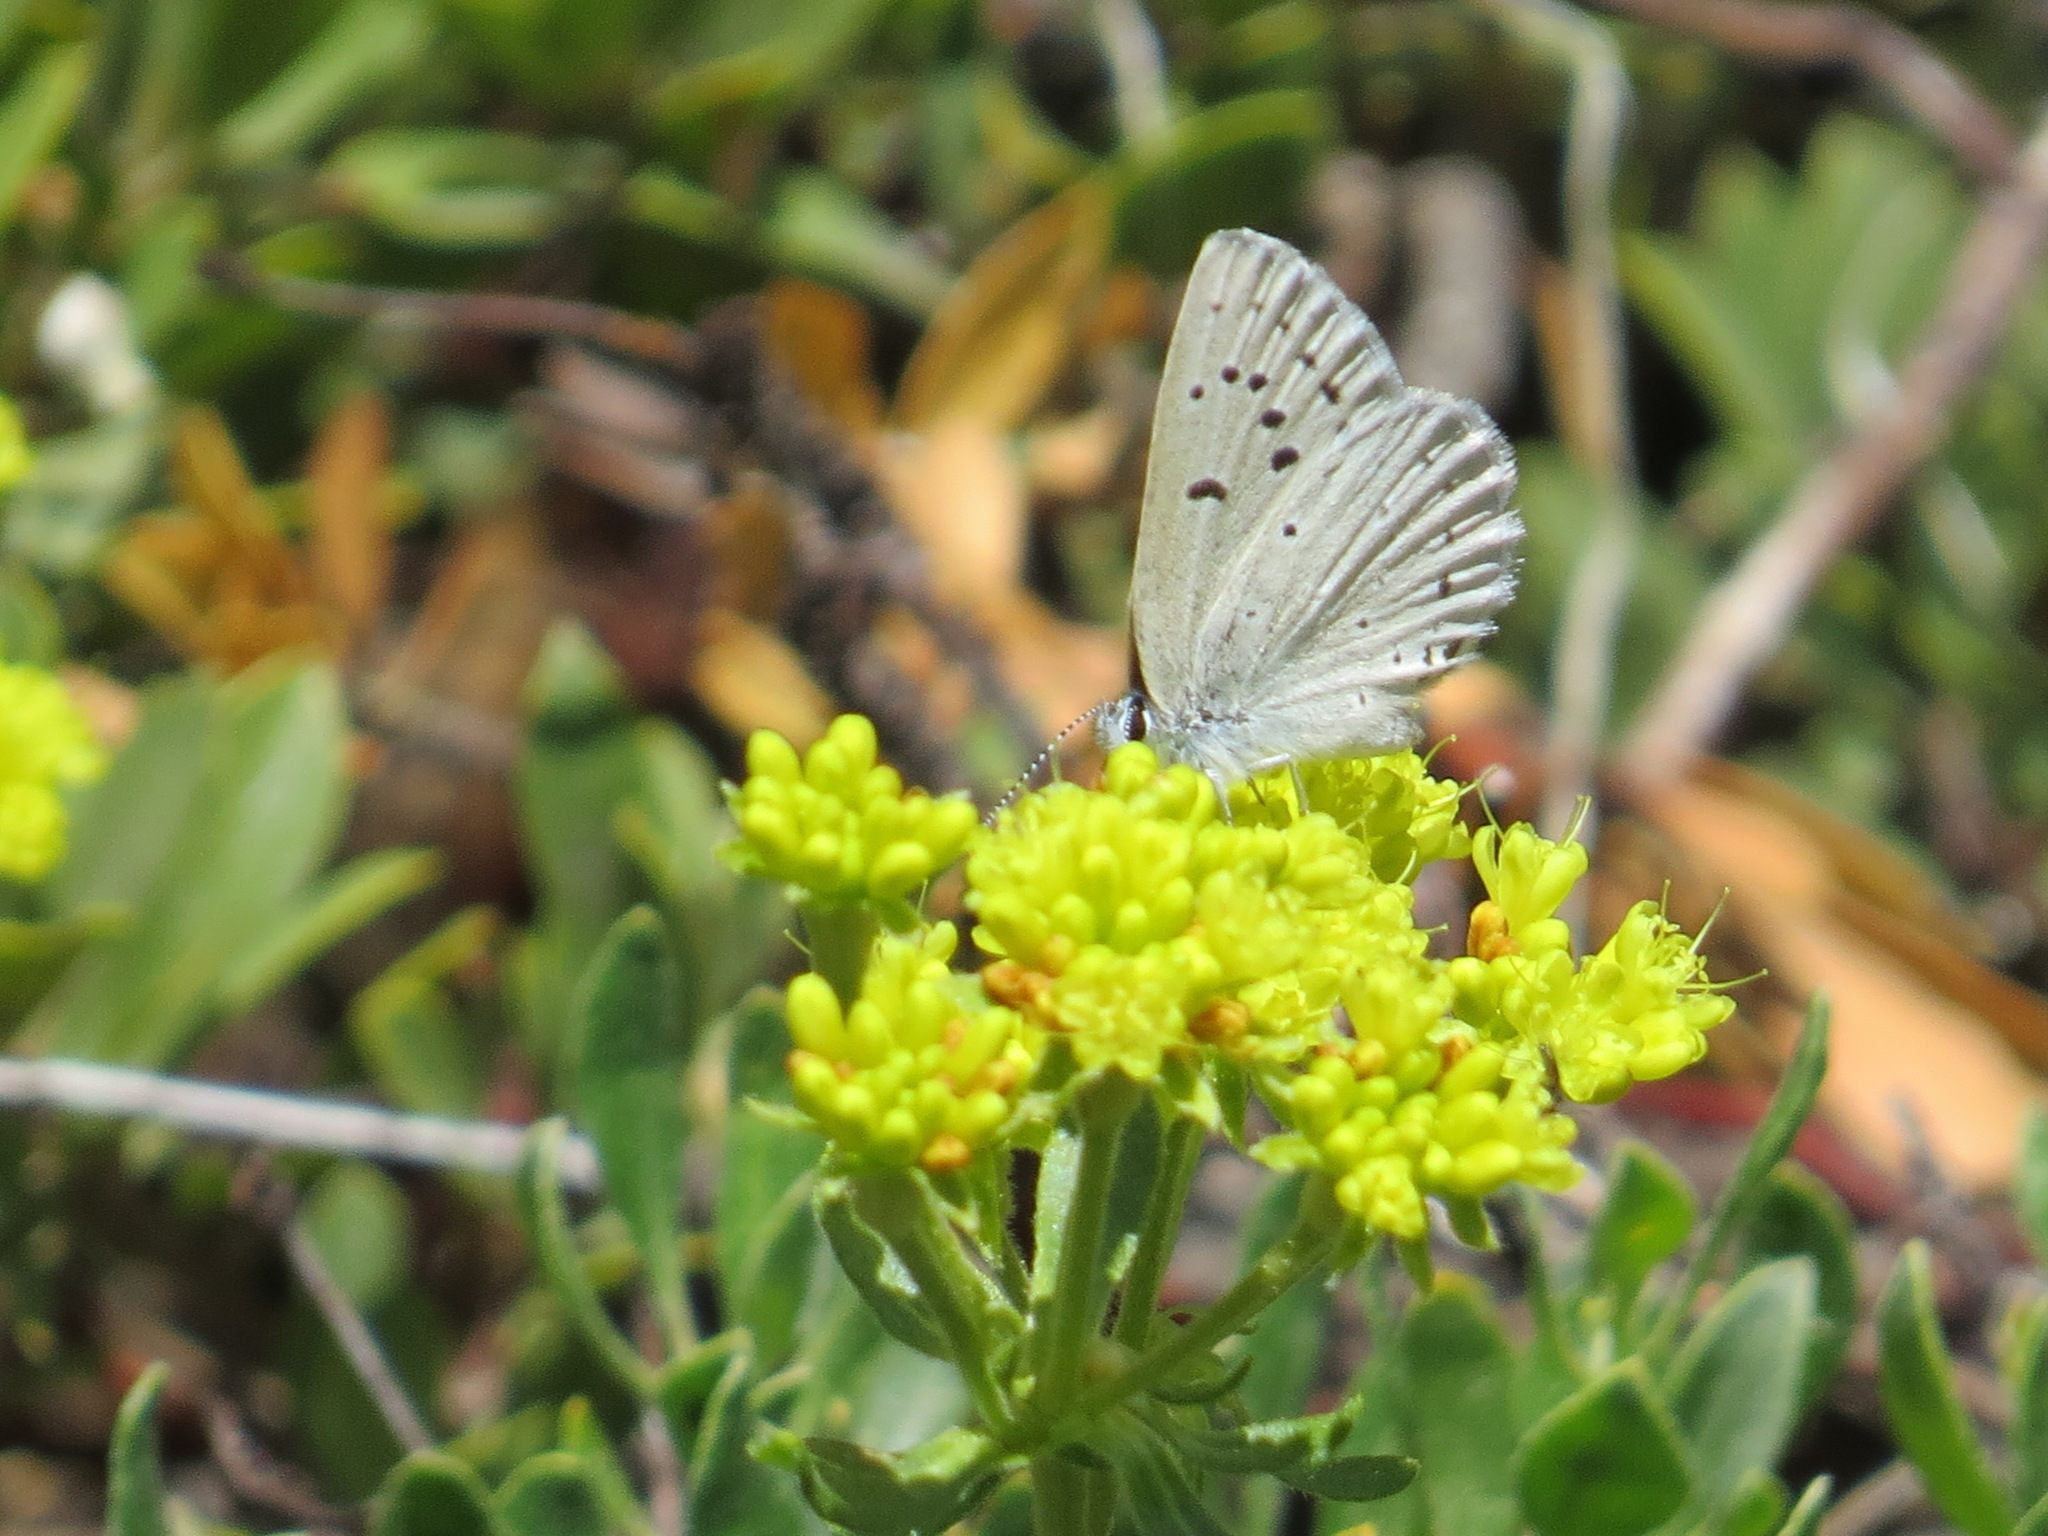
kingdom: Animalia
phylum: Arthropoda
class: Insecta
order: Lepidoptera
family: Lycaenidae
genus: Icaricia
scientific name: Icaricia icarioides
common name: Boisduval's blue
